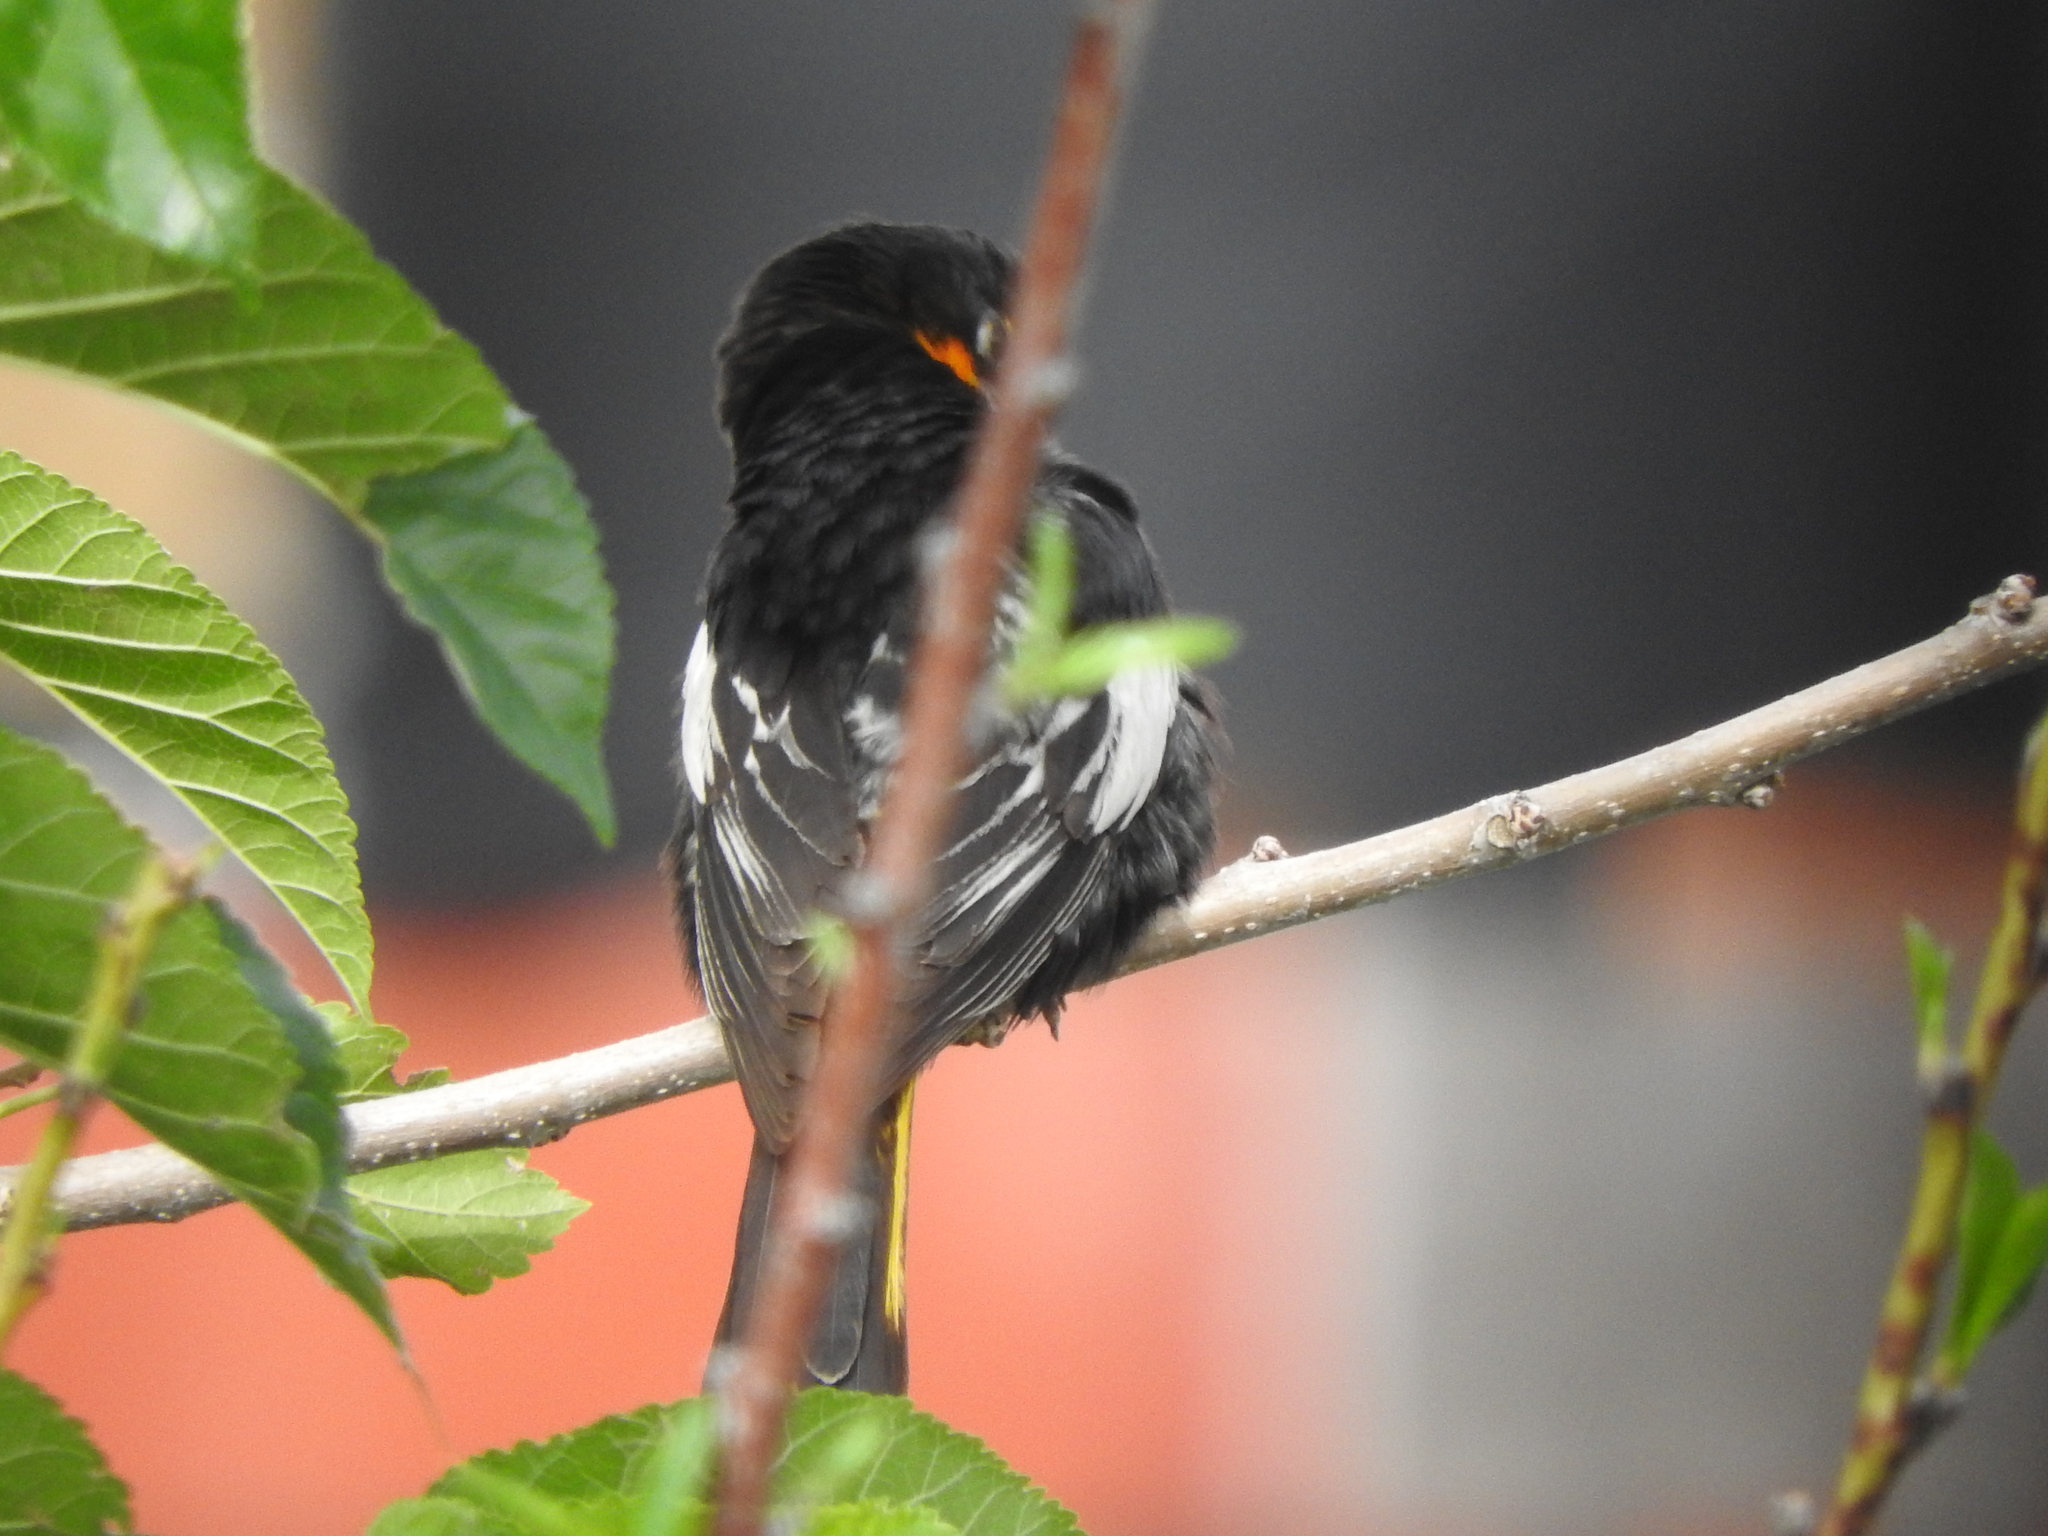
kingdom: Animalia
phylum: Chordata
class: Aves
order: Passeriformes
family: Icteridae
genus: Icterus
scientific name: Icterus abeillei
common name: Black-backed oriole
